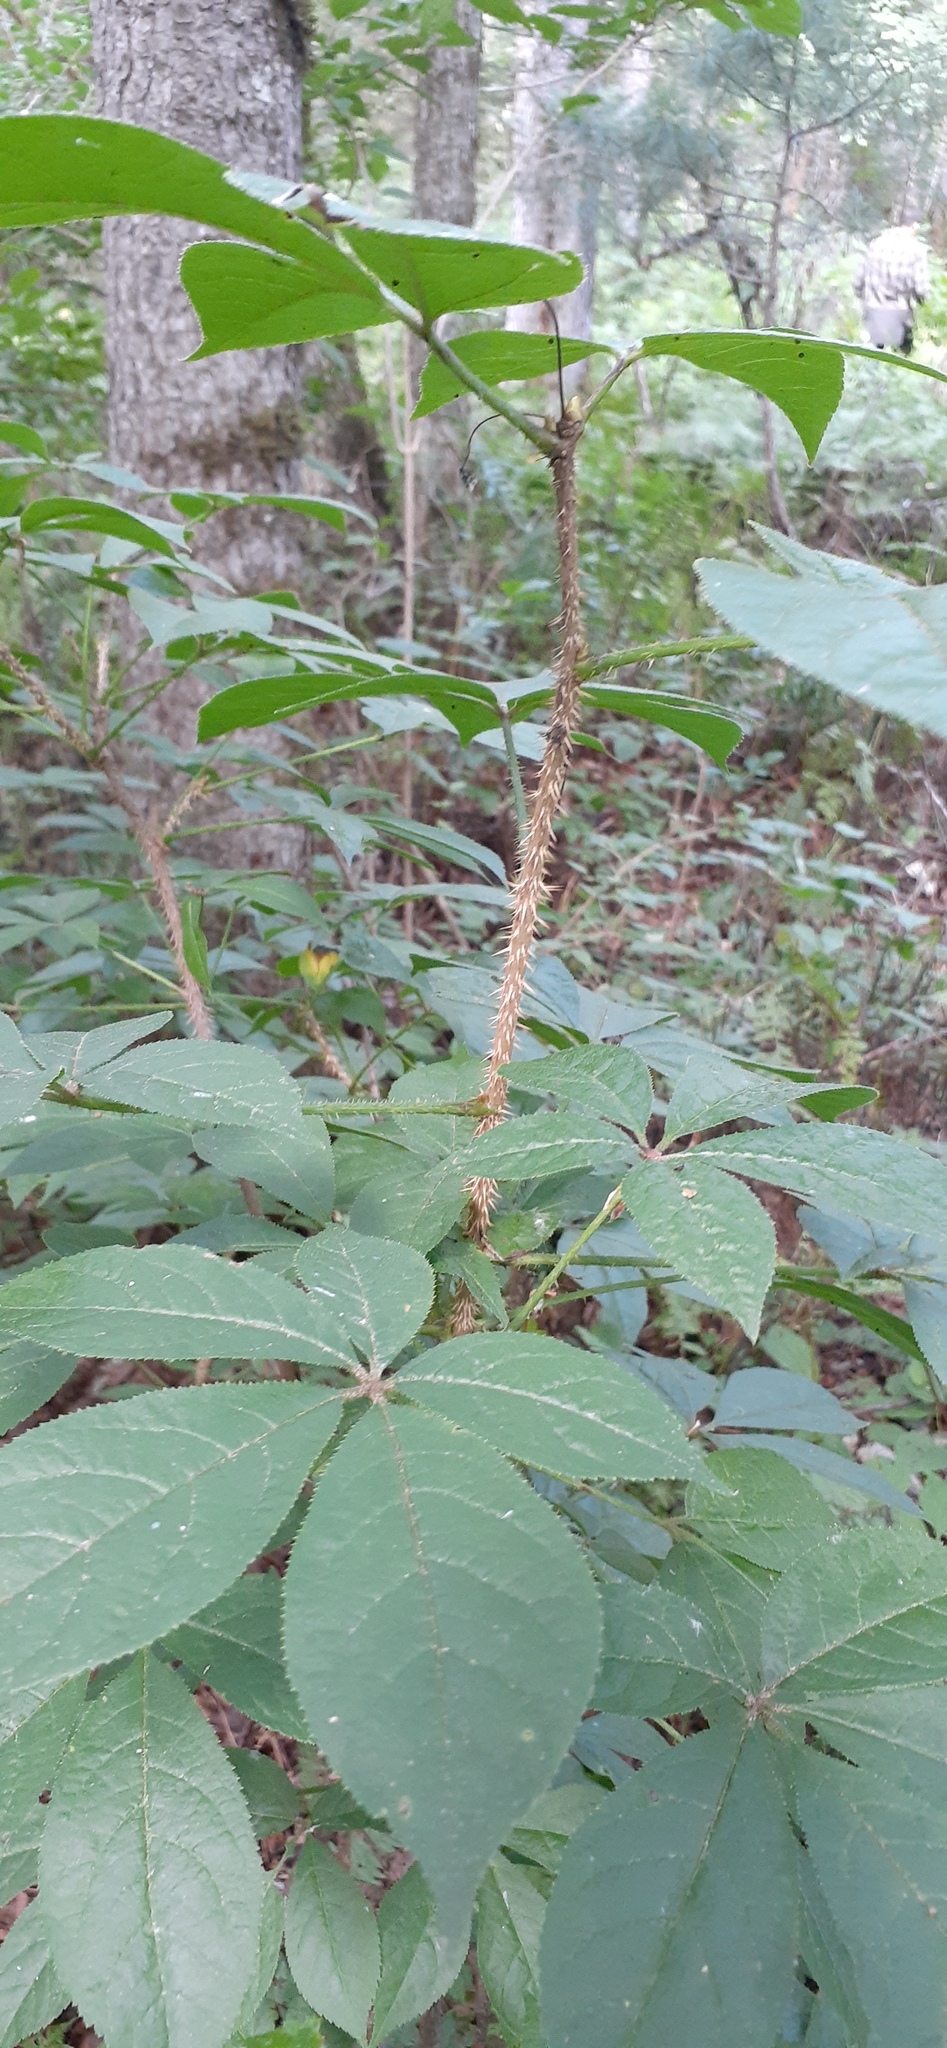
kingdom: Plantae
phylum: Tracheophyta
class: Magnoliopsida
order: Apiales
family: Araliaceae
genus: Eleutherococcus
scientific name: Eleutherococcus senticosus
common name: Siberian-ginseng
